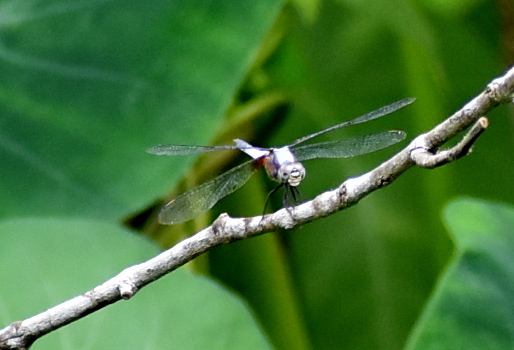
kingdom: Animalia
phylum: Arthropoda
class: Insecta
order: Odonata
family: Libellulidae
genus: Brachydiplax
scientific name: Brachydiplax chalybea
